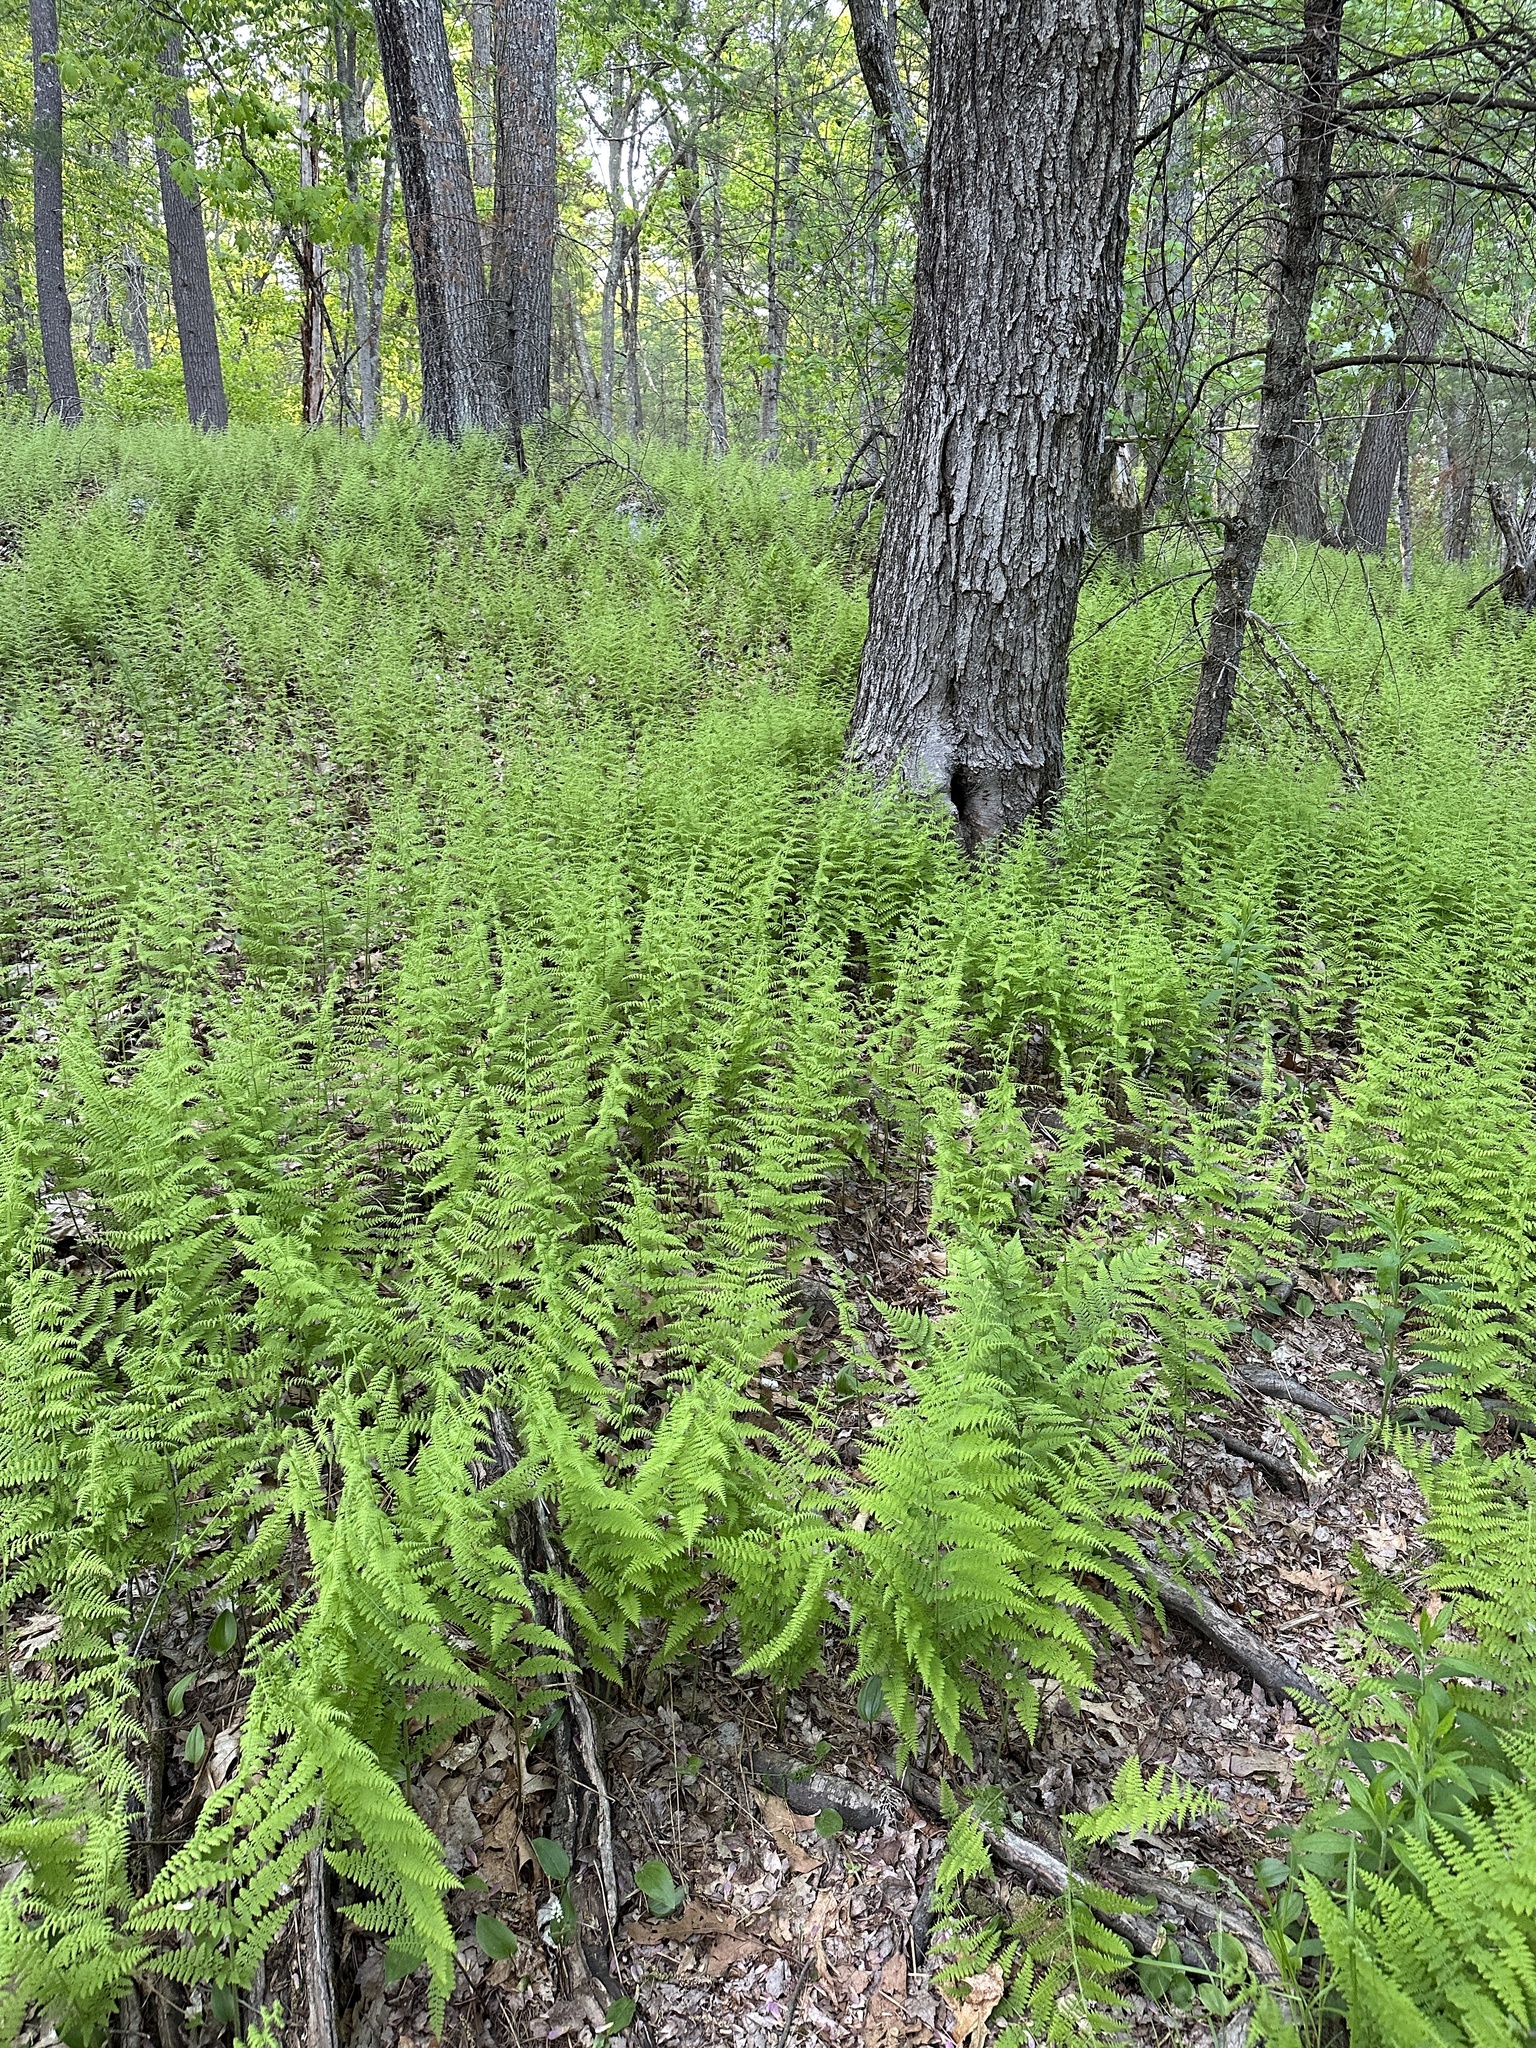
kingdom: Plantae
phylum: Tracheophyta
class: Polypodiopsida
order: Polypodiales
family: Dennstaedtiaceae
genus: Sitobolium
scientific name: Sitobolium punctilobum
